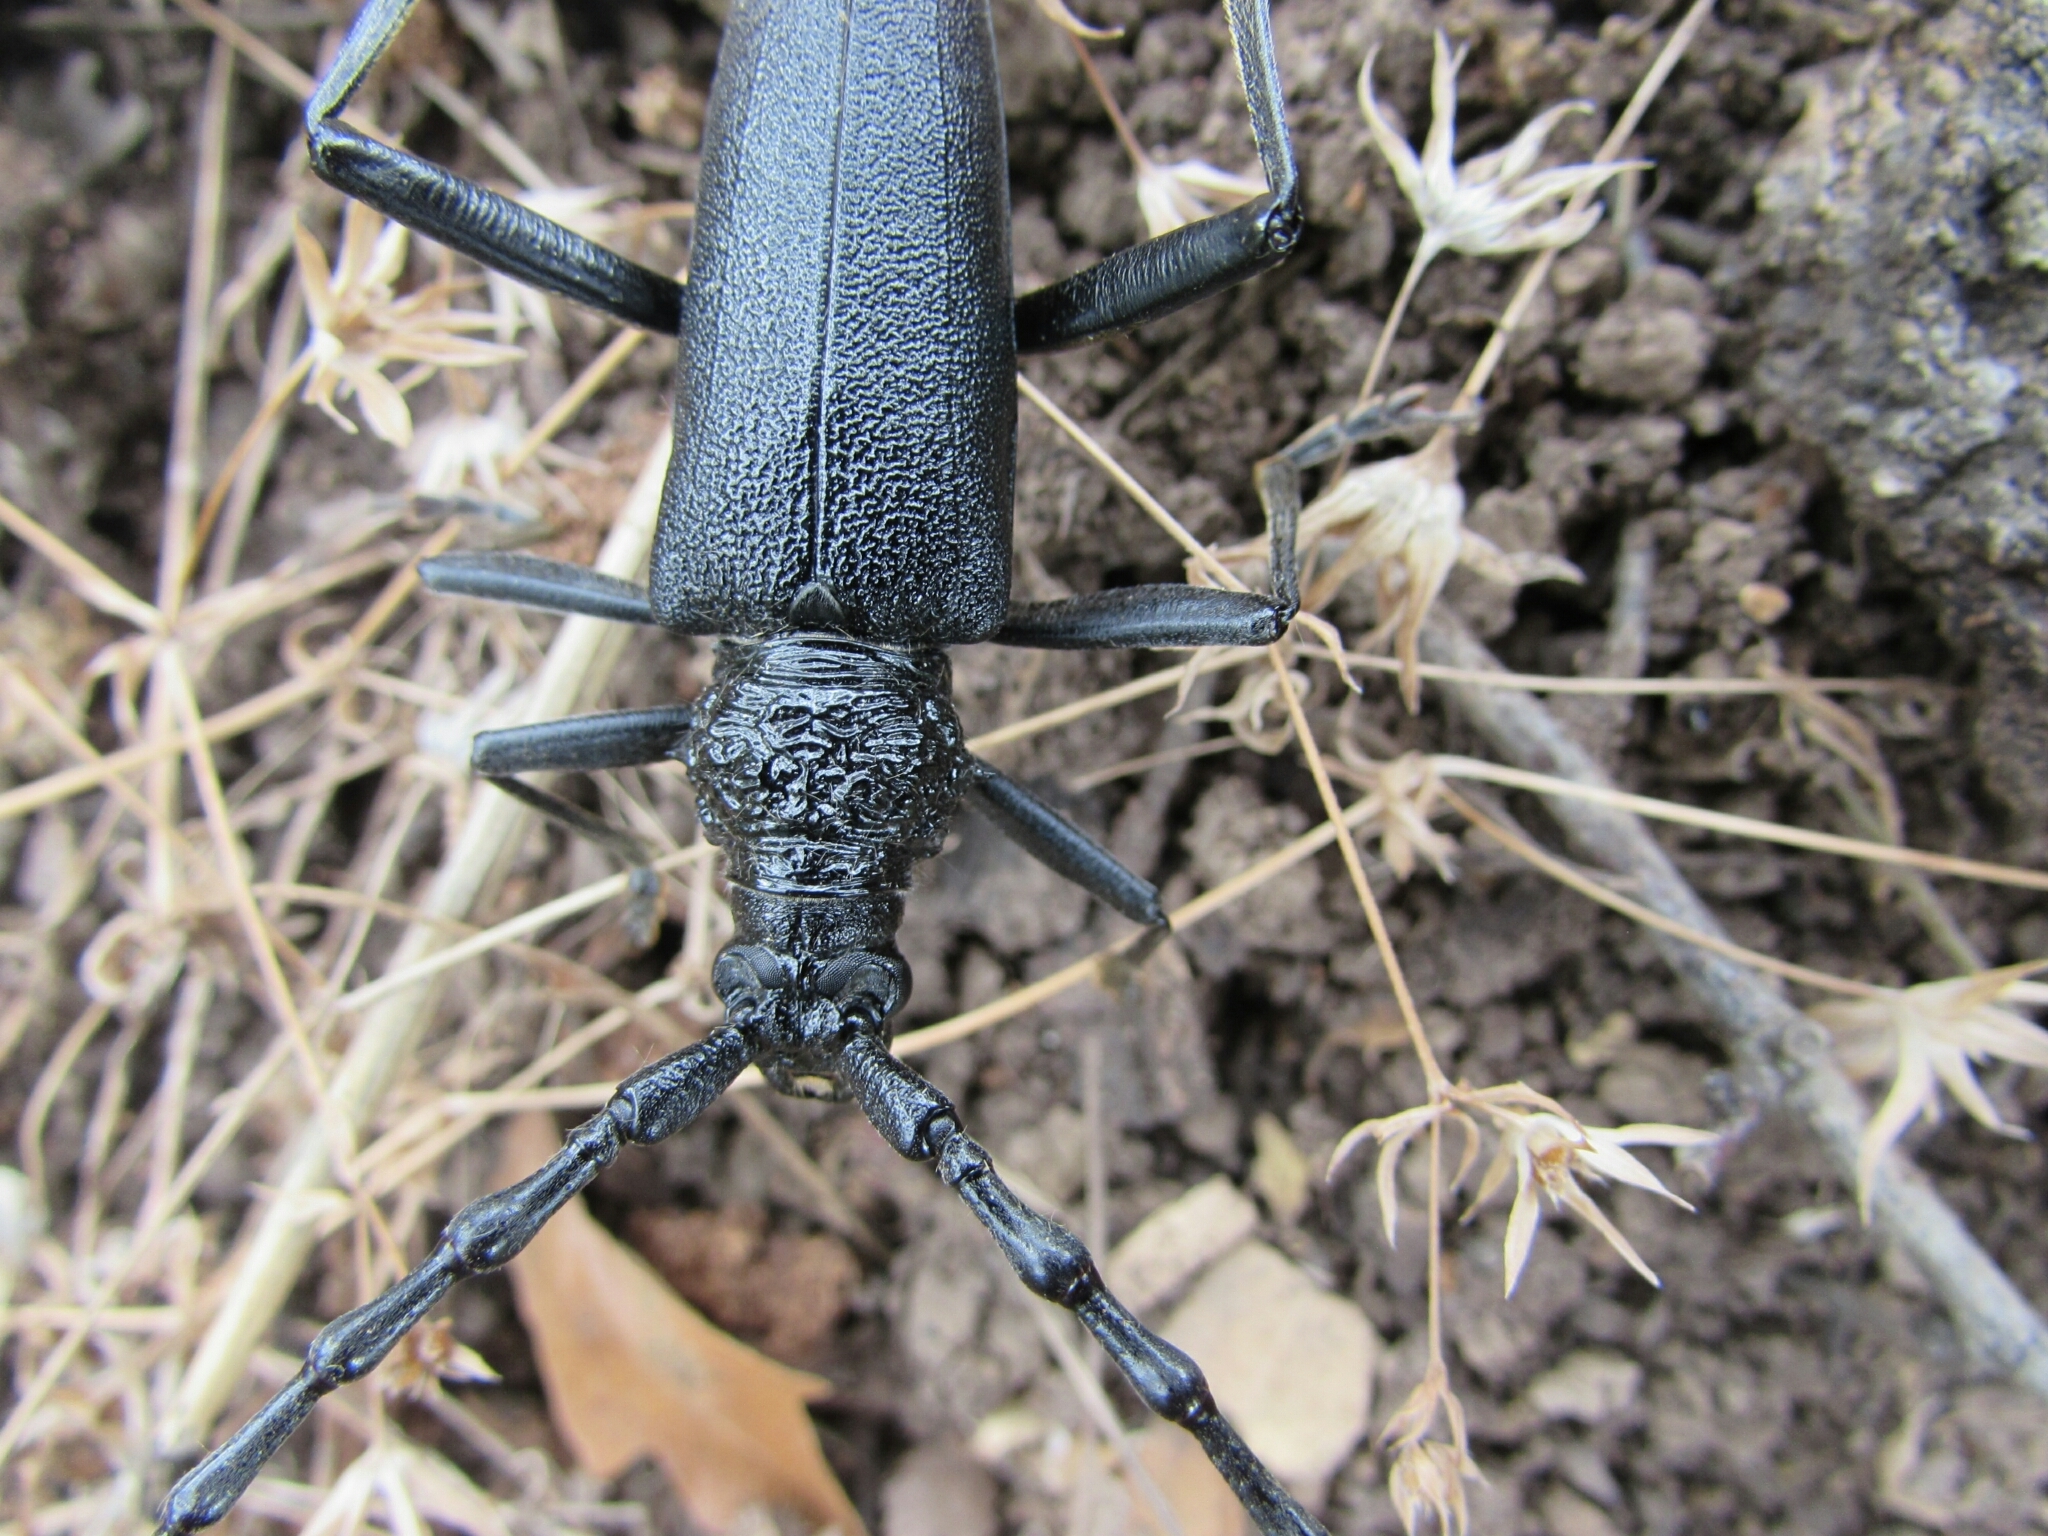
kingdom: Animalia
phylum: Arthropoda
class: Insecta
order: Coleoptera
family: Cerambycidae
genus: Cerambyx
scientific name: Cerambyx cerdo
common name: Cerambyx longicorn
